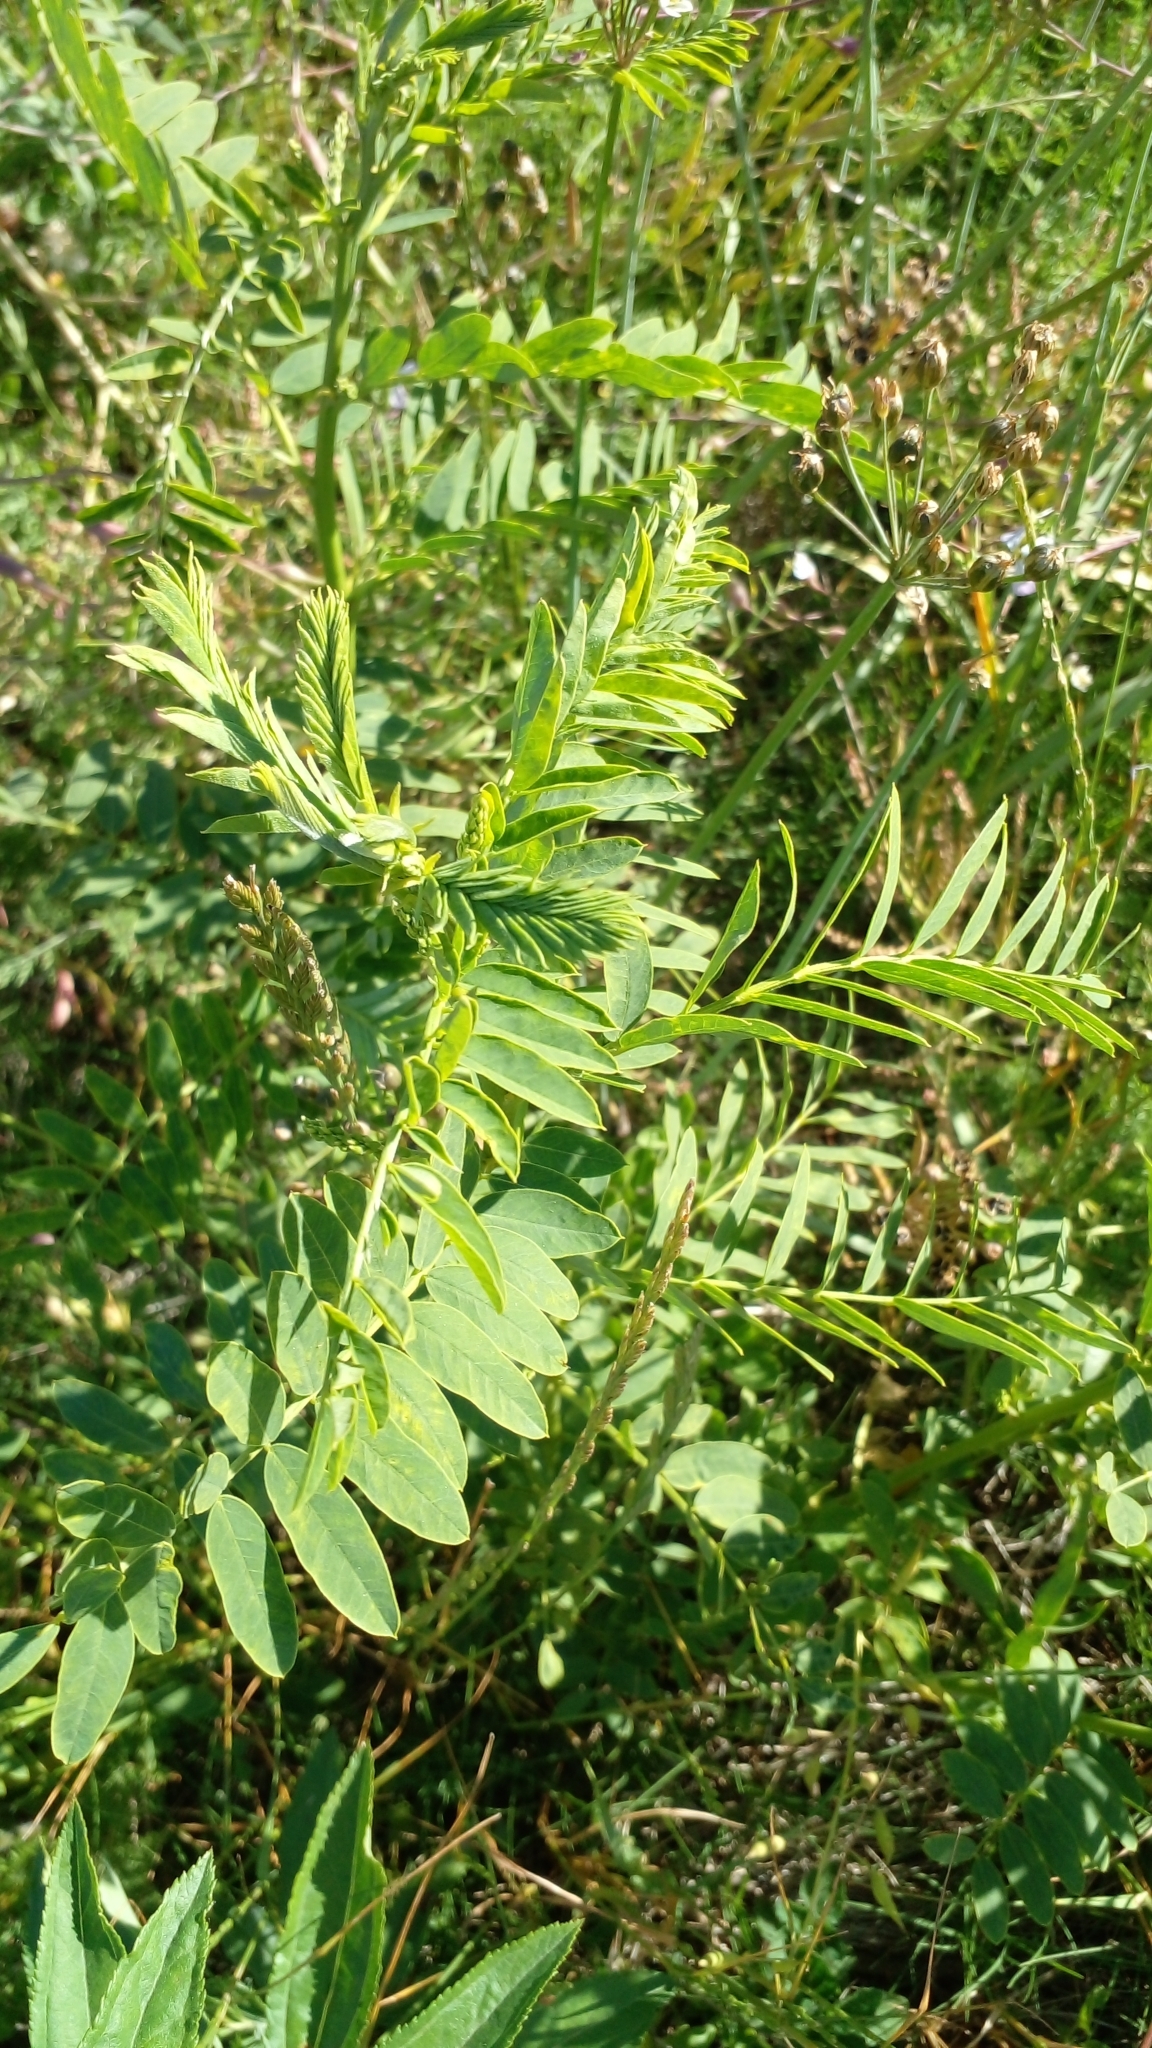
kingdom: Plantae
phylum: Tracheophyta
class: Magnoliopsida
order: Fabales
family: Fabaceae
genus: Sesbania
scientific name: Sesbania virgata
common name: Wand riverhemp
